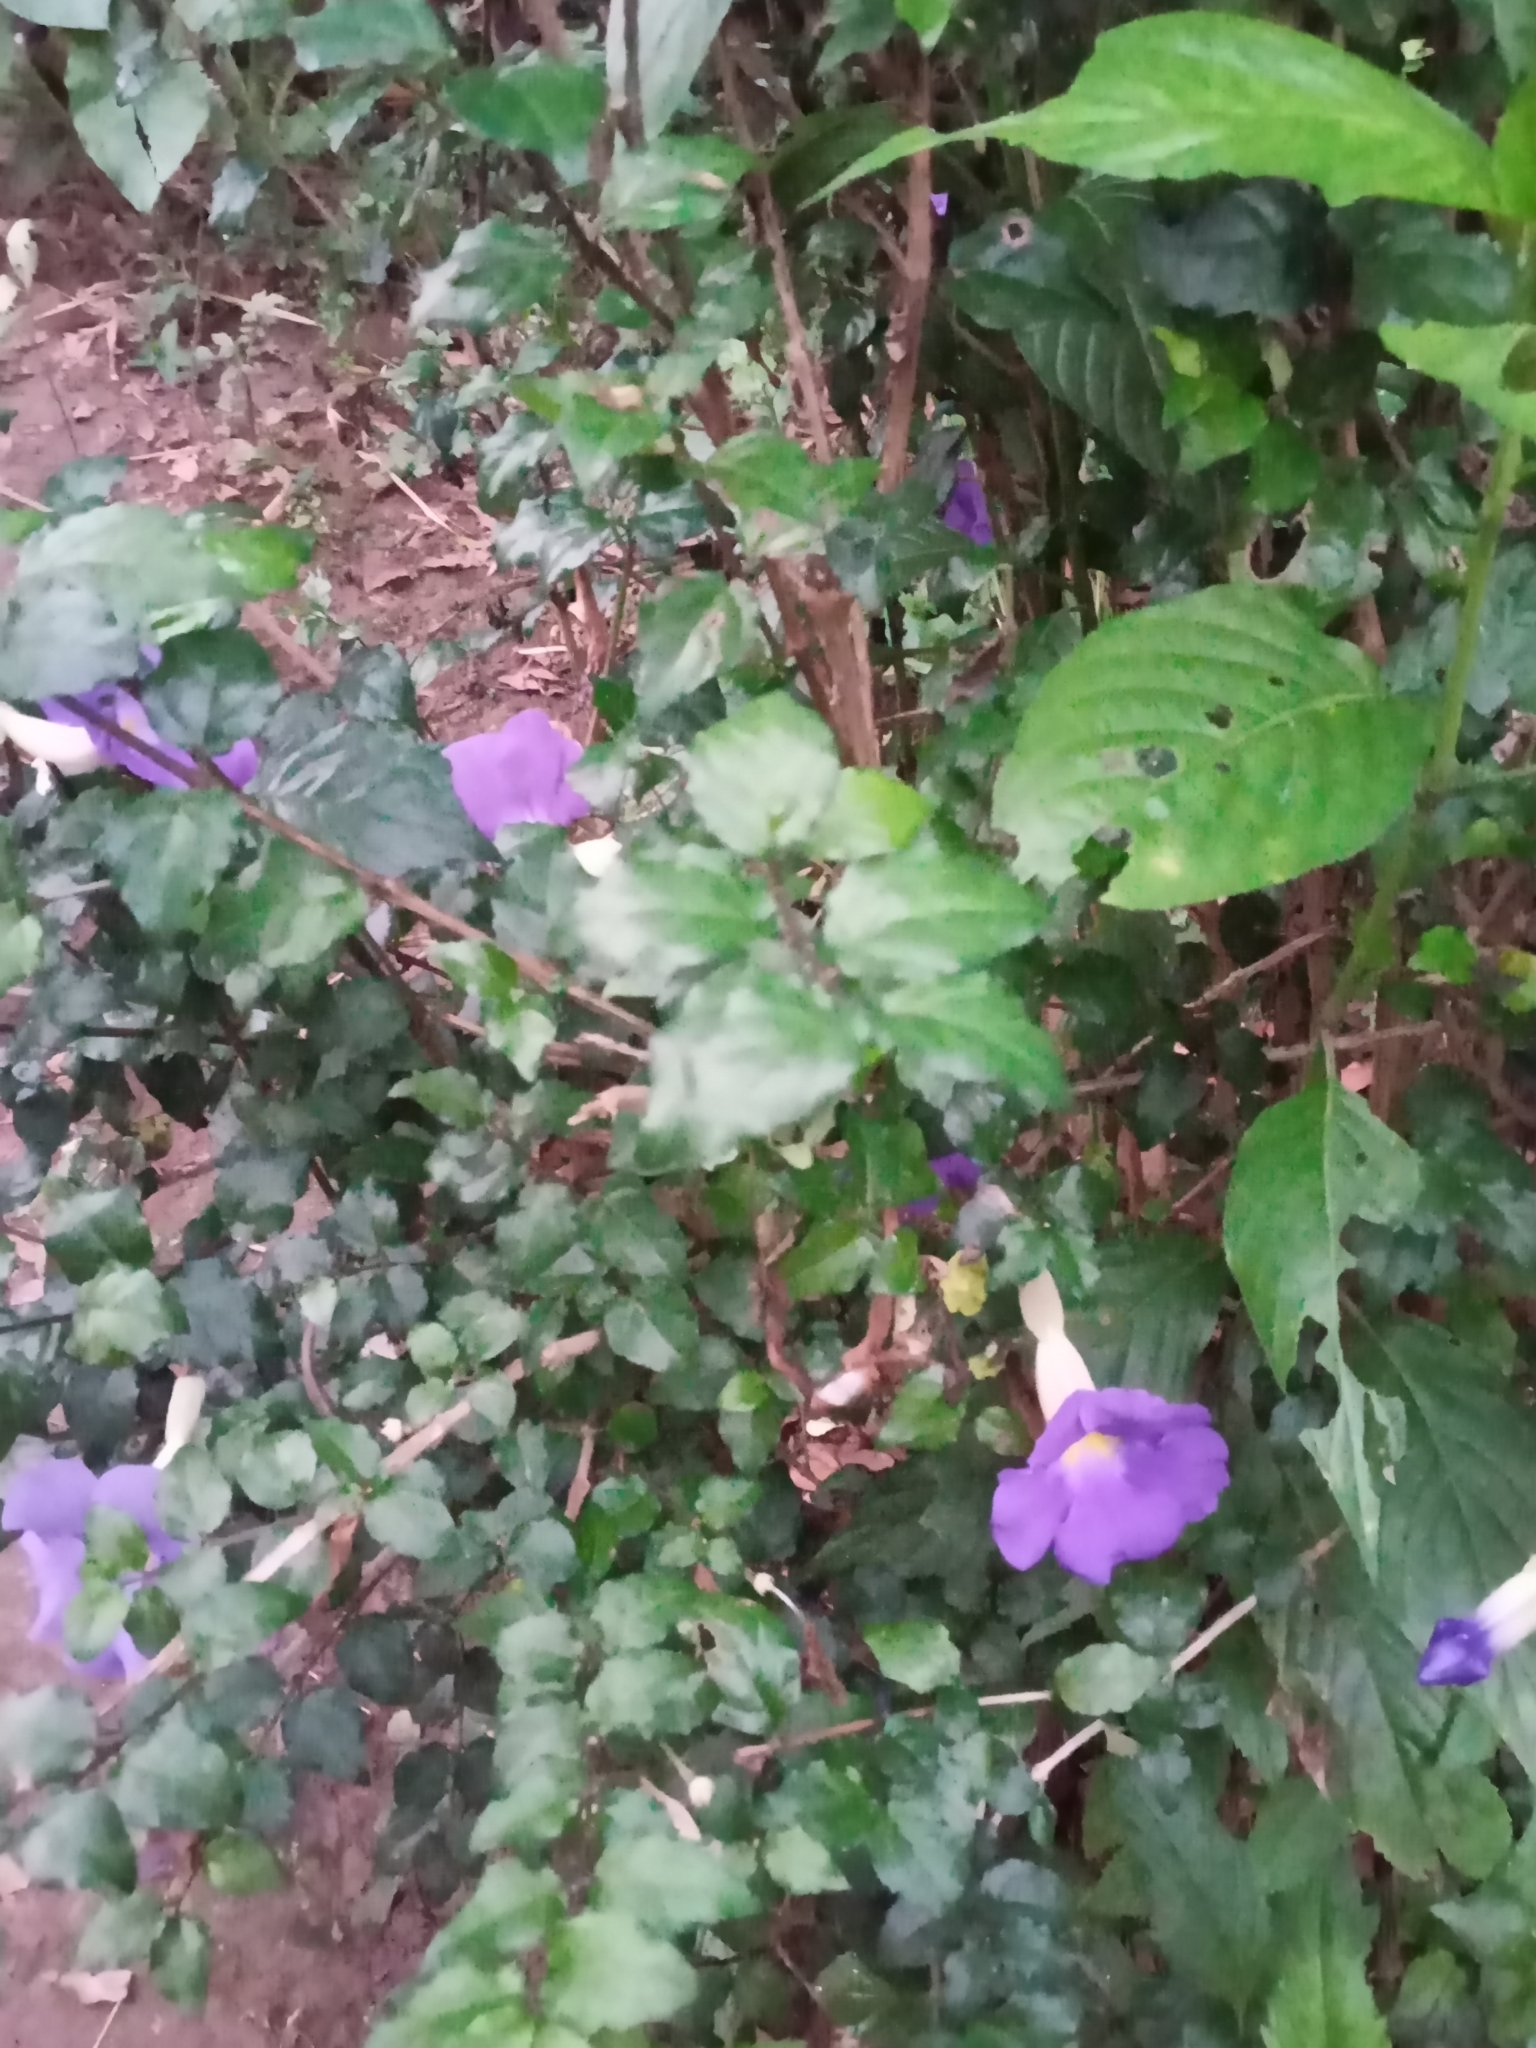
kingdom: Plantae
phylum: Tracheophyta
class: Magnoliopsida
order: Lamiales
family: Acanthaceae
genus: Thunbergia
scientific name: Thunbergia erecta
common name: Bush clockvine
